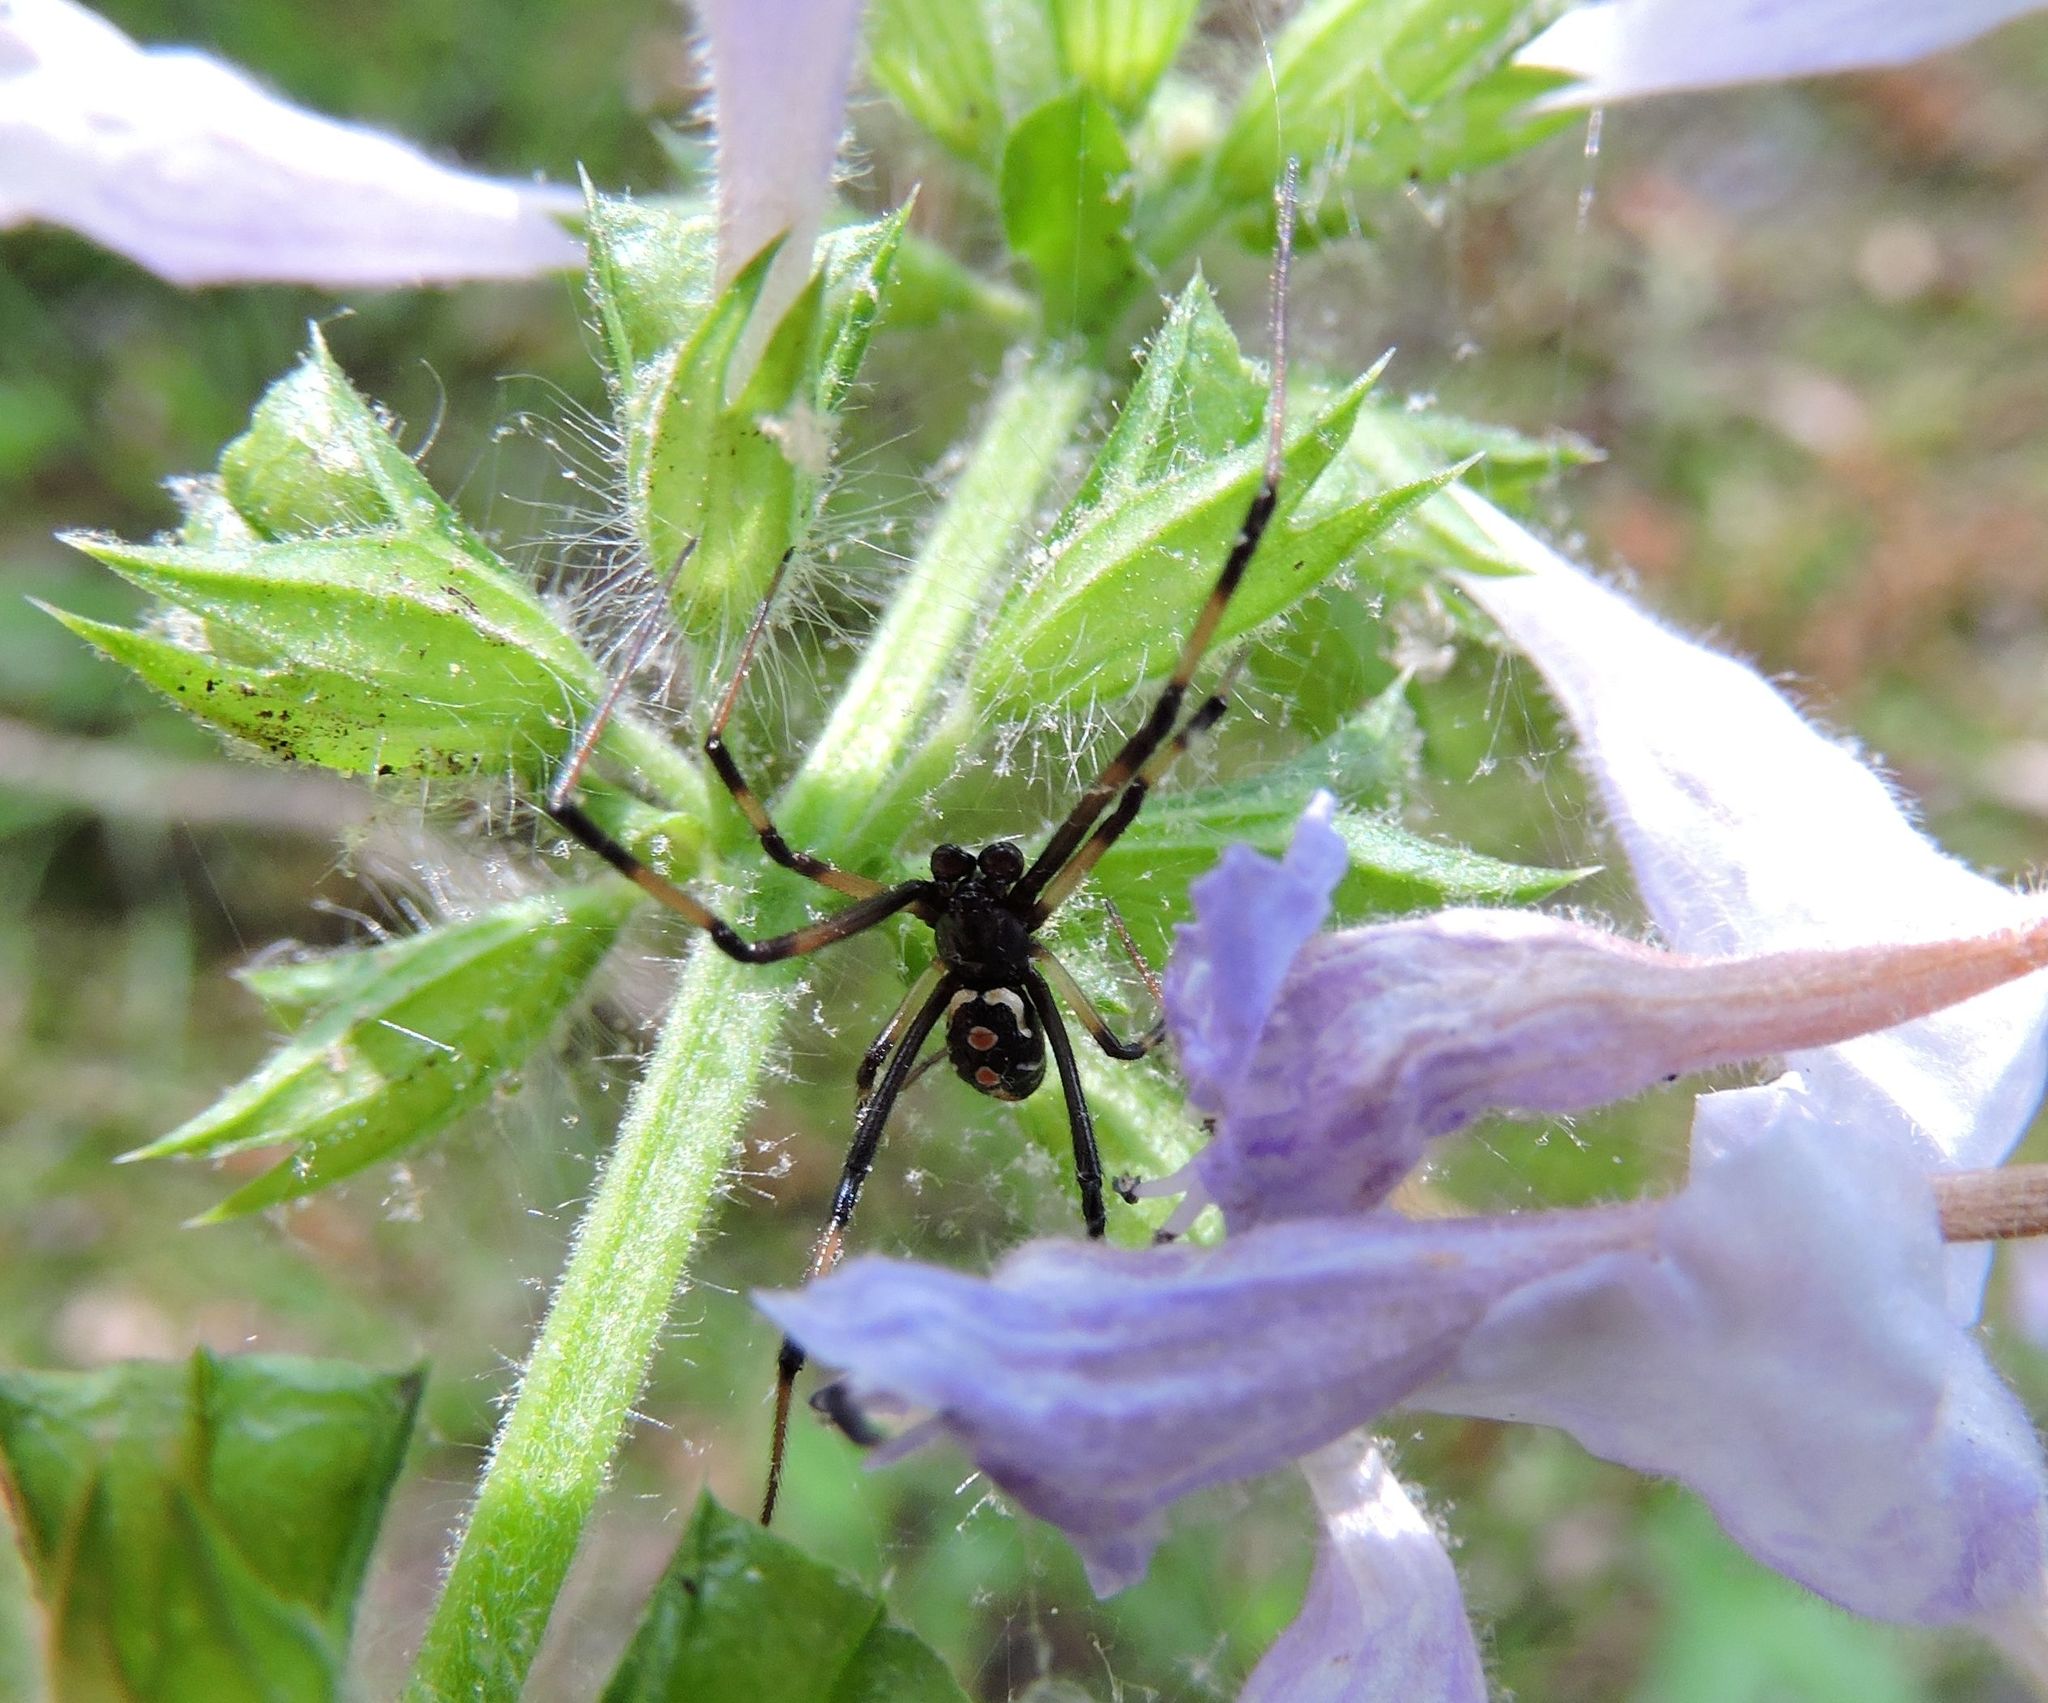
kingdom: Animalia
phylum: Arthropoda
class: Arachnida
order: Araneae
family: Theridiidae
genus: Latrodectus
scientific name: Latrodectus variolus
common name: Northern black widow
